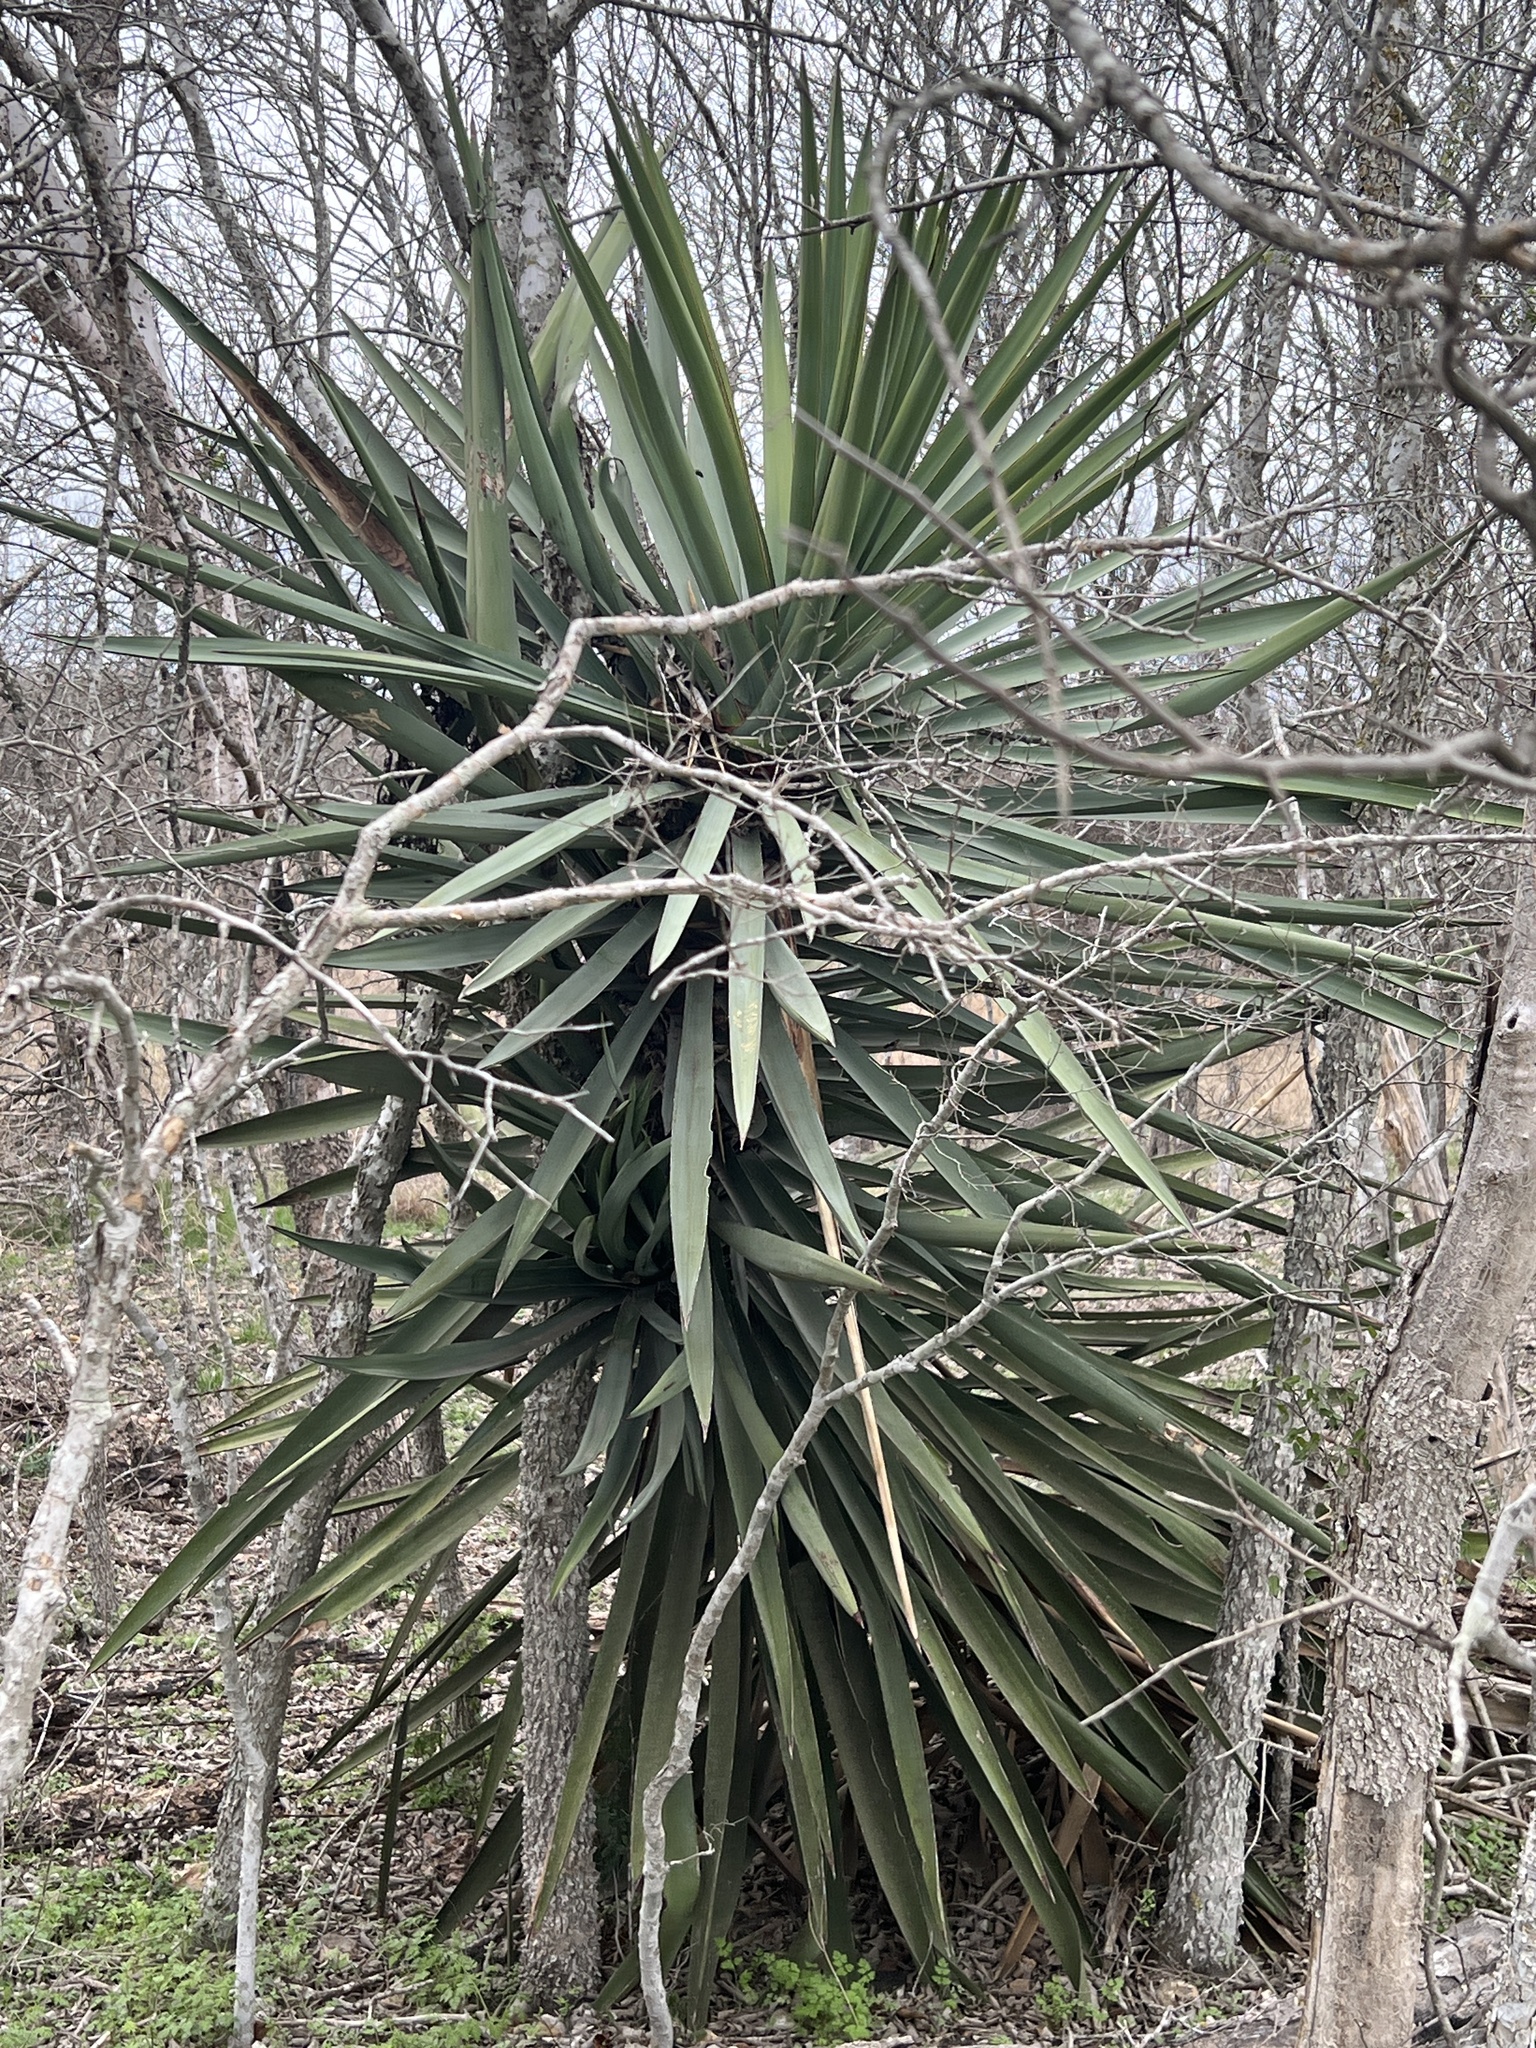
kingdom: Plantae
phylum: Tracheophyta
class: Liliopsida
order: Asparagales
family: Asparagaceae
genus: Yucca
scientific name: Yucca treculiana
